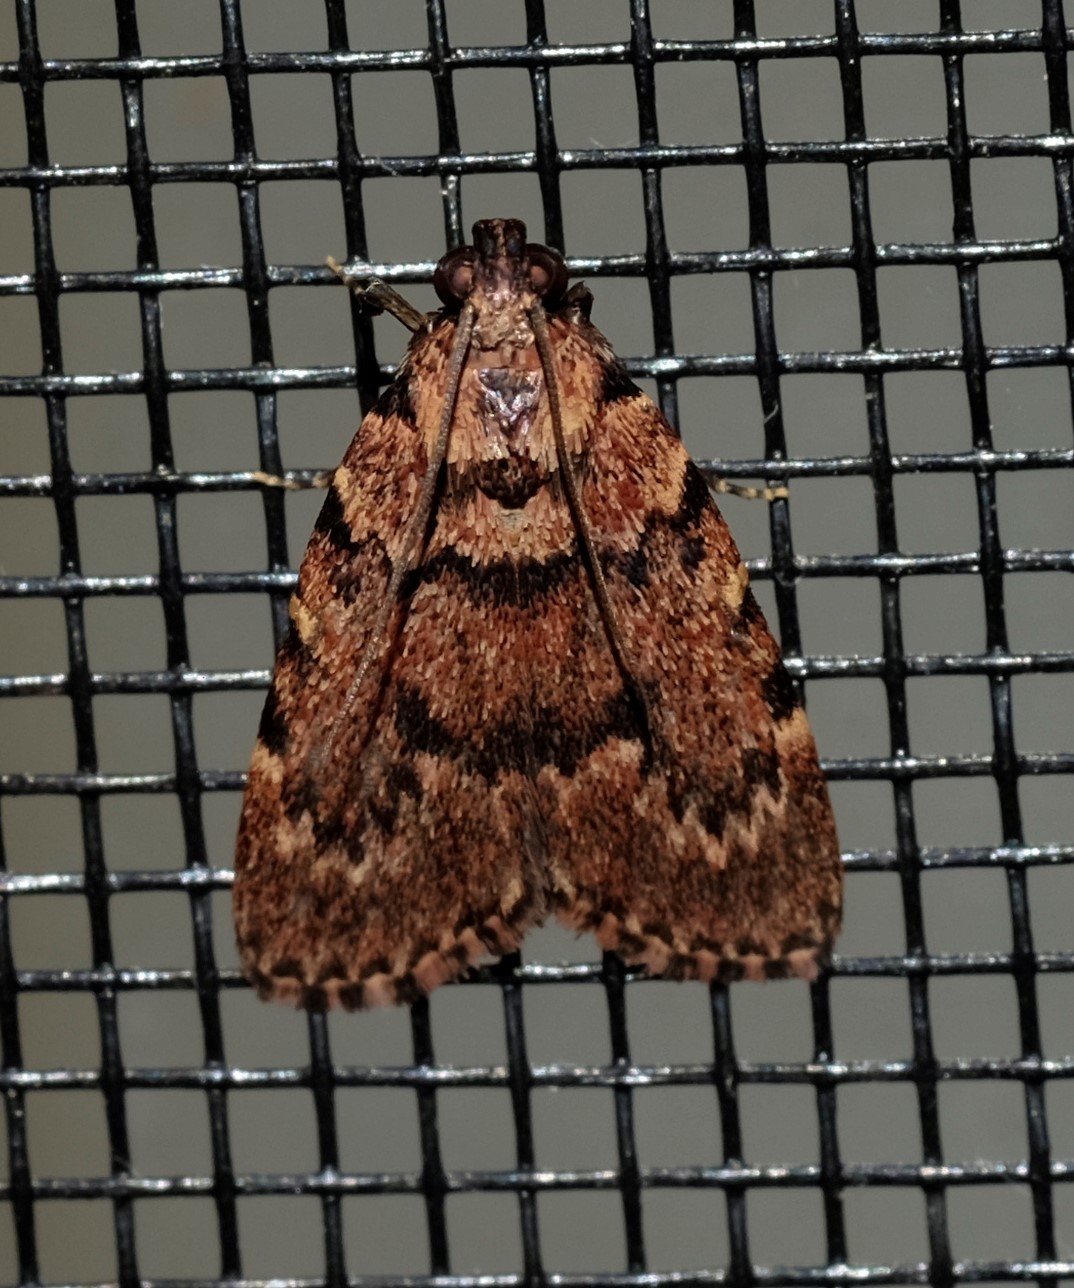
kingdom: Animalia
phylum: Arthropoda
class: Insecta
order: Lepidoptera
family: Pyralidae
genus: Mimaglossa
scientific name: Mimaglossa nauplialis
